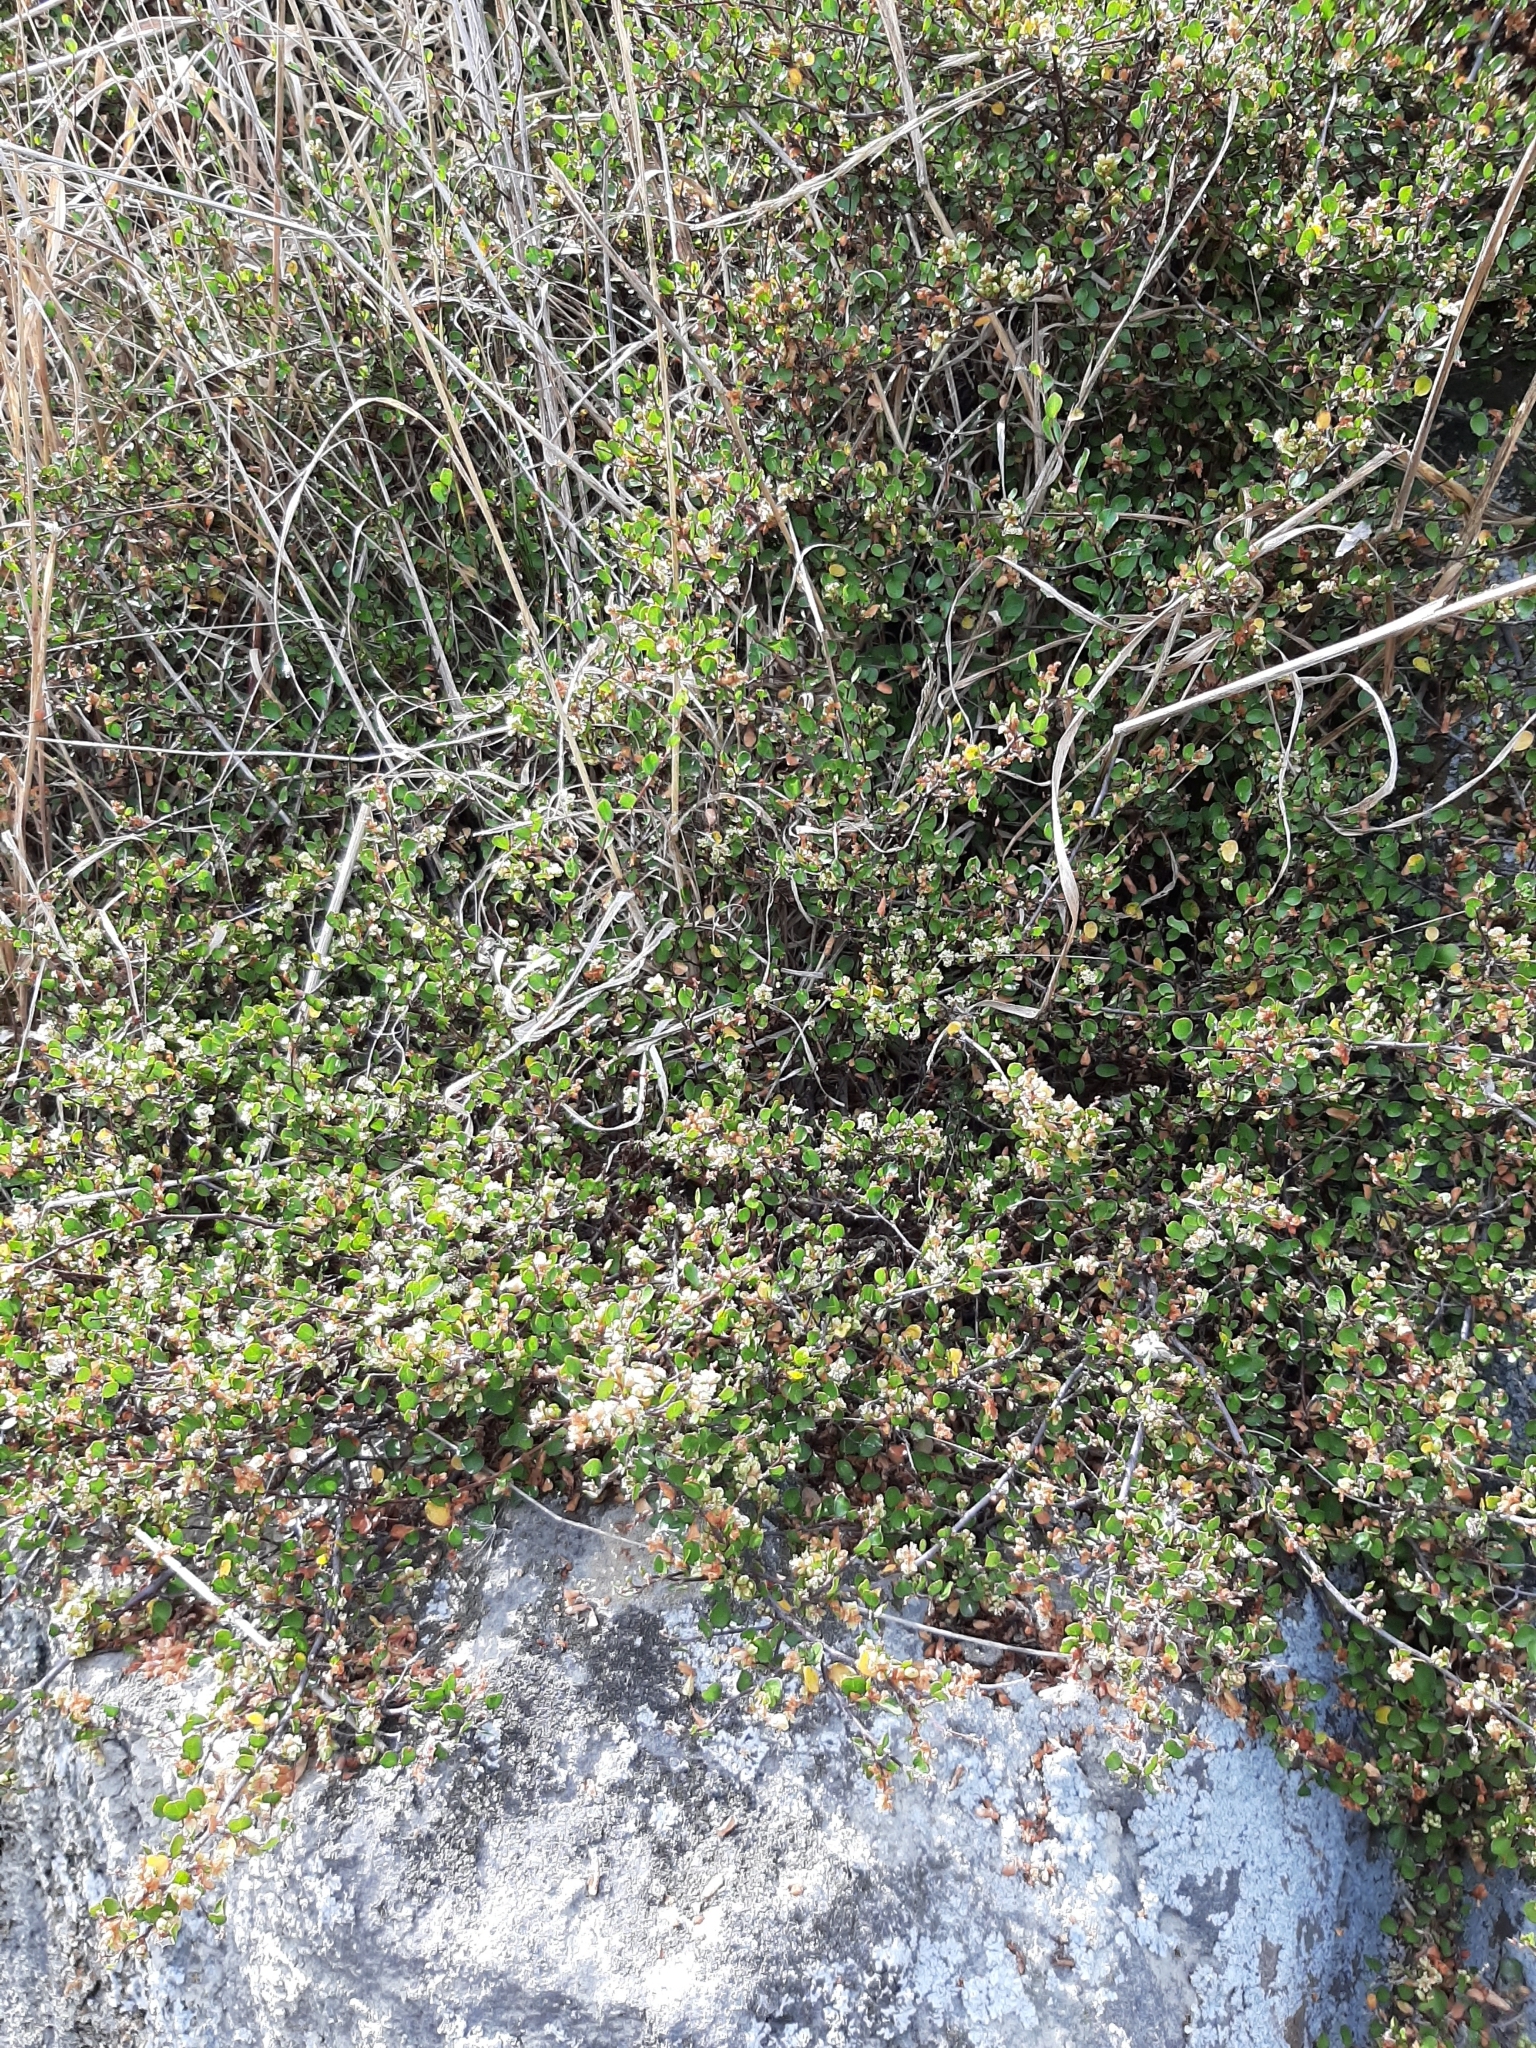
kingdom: Plantae
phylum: Tracheophyta
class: Magnoliopsida
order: Caryophyllales
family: Polygonaceae
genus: Muehlenbeckia
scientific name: Muehlenbeckia axillaris
